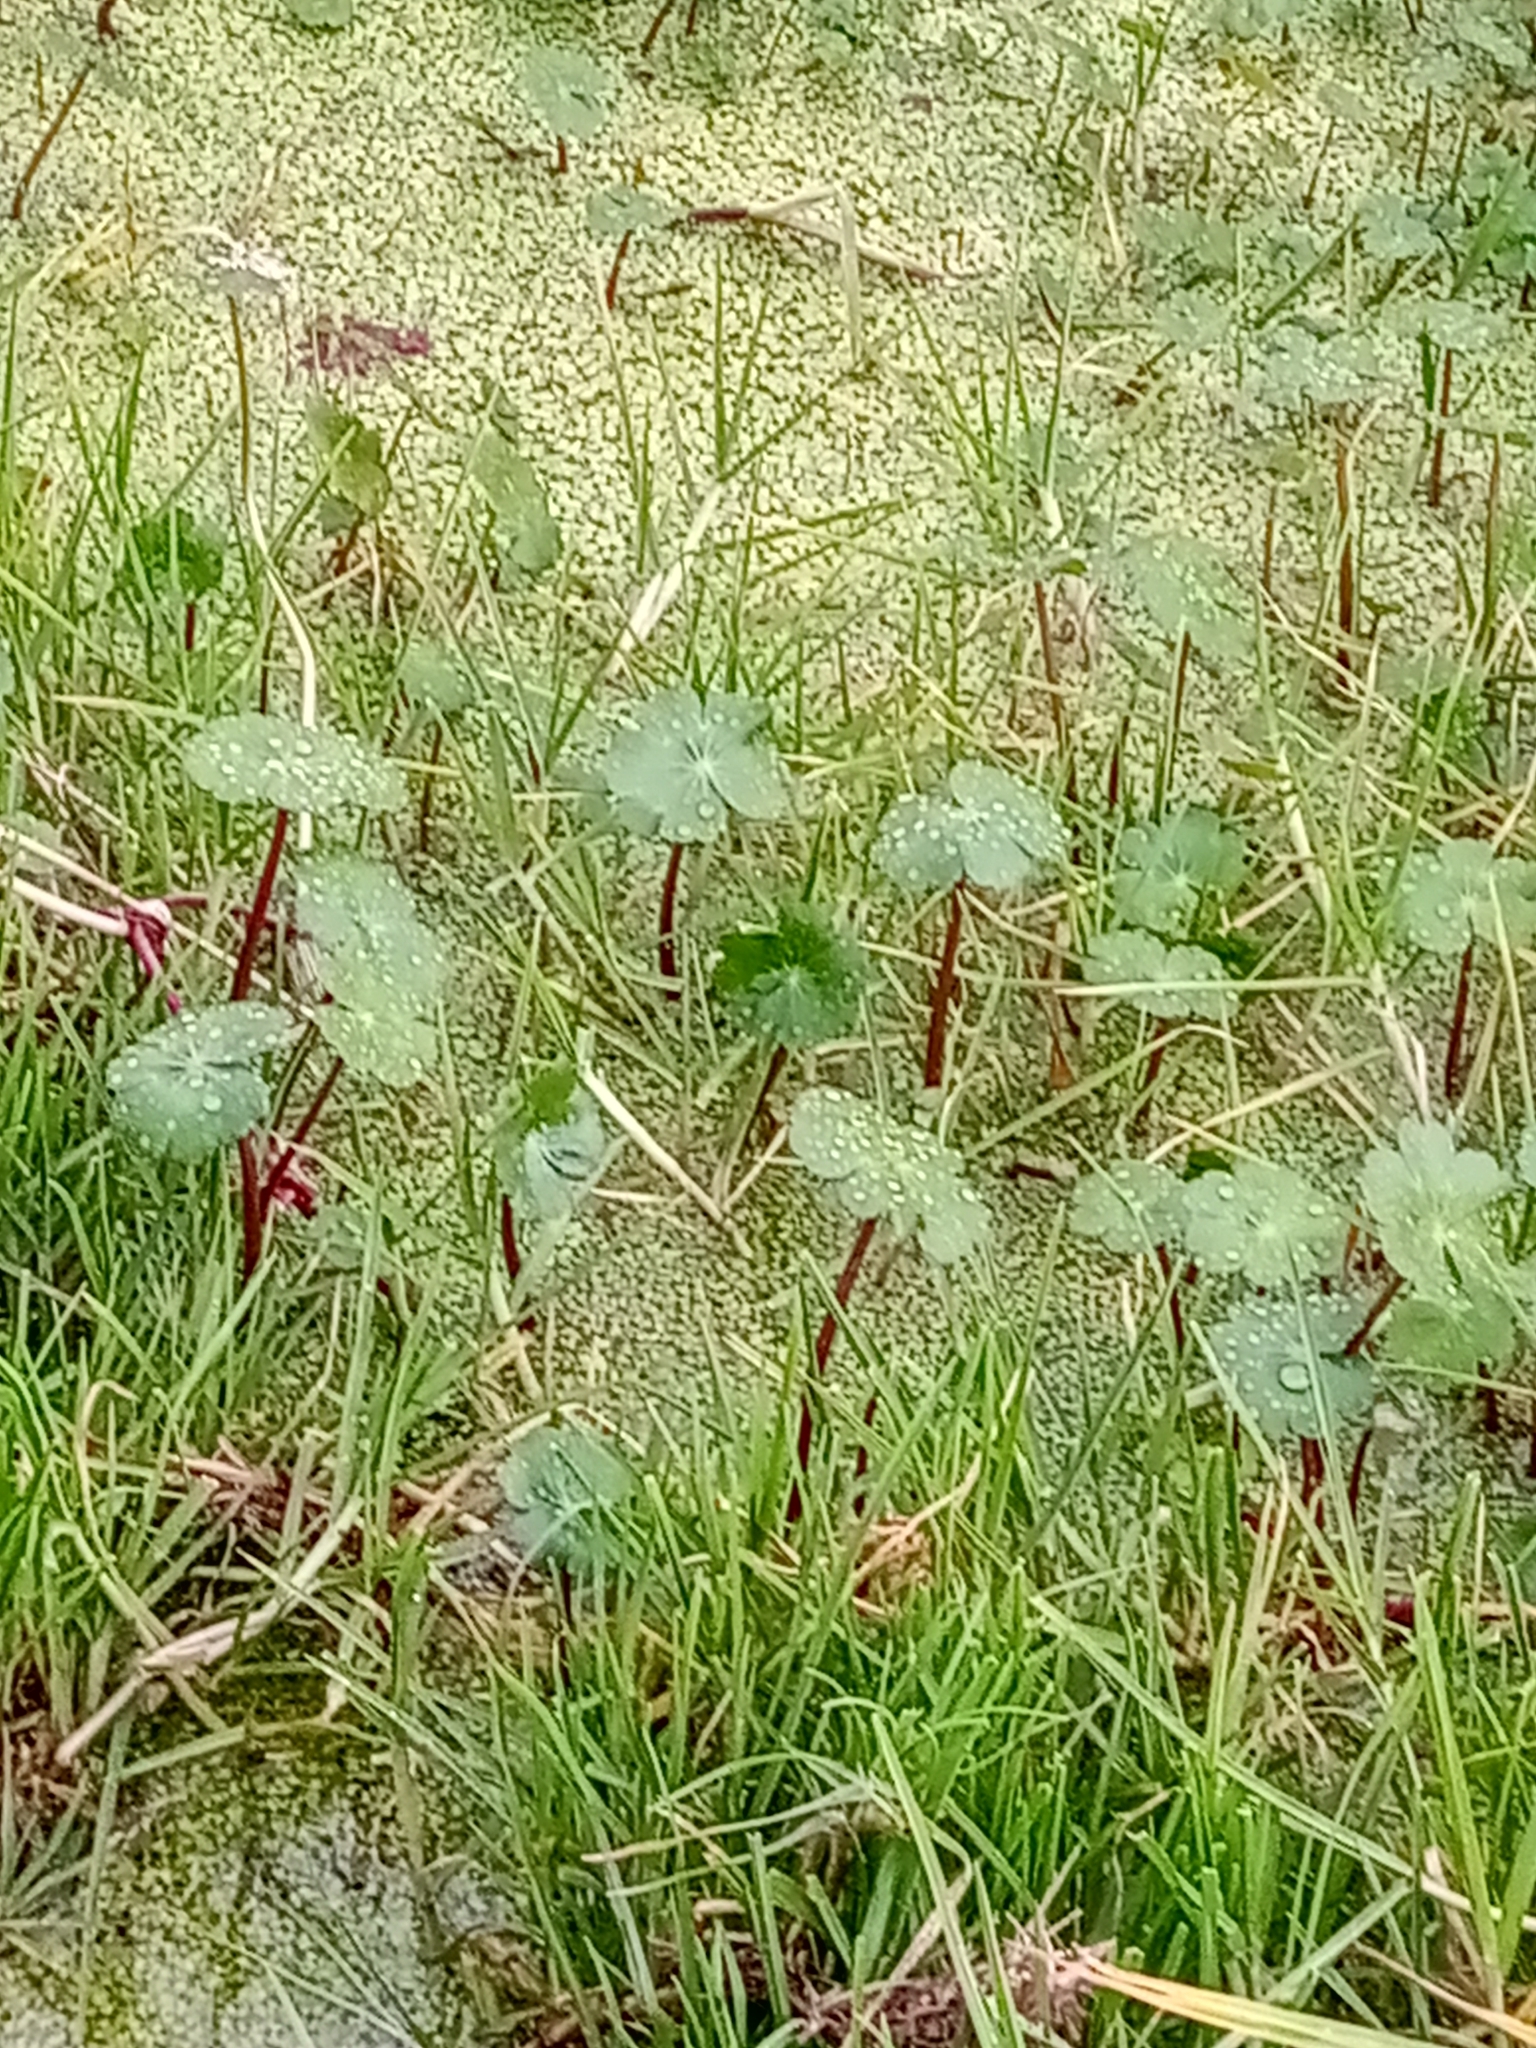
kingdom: Plantae
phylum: Tracheophyta
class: Magnoliopsida
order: Apiales
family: Araliaceae
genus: Hydrocotyle
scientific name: Hydrocotyle ranunculoides
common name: Floating pennywort
